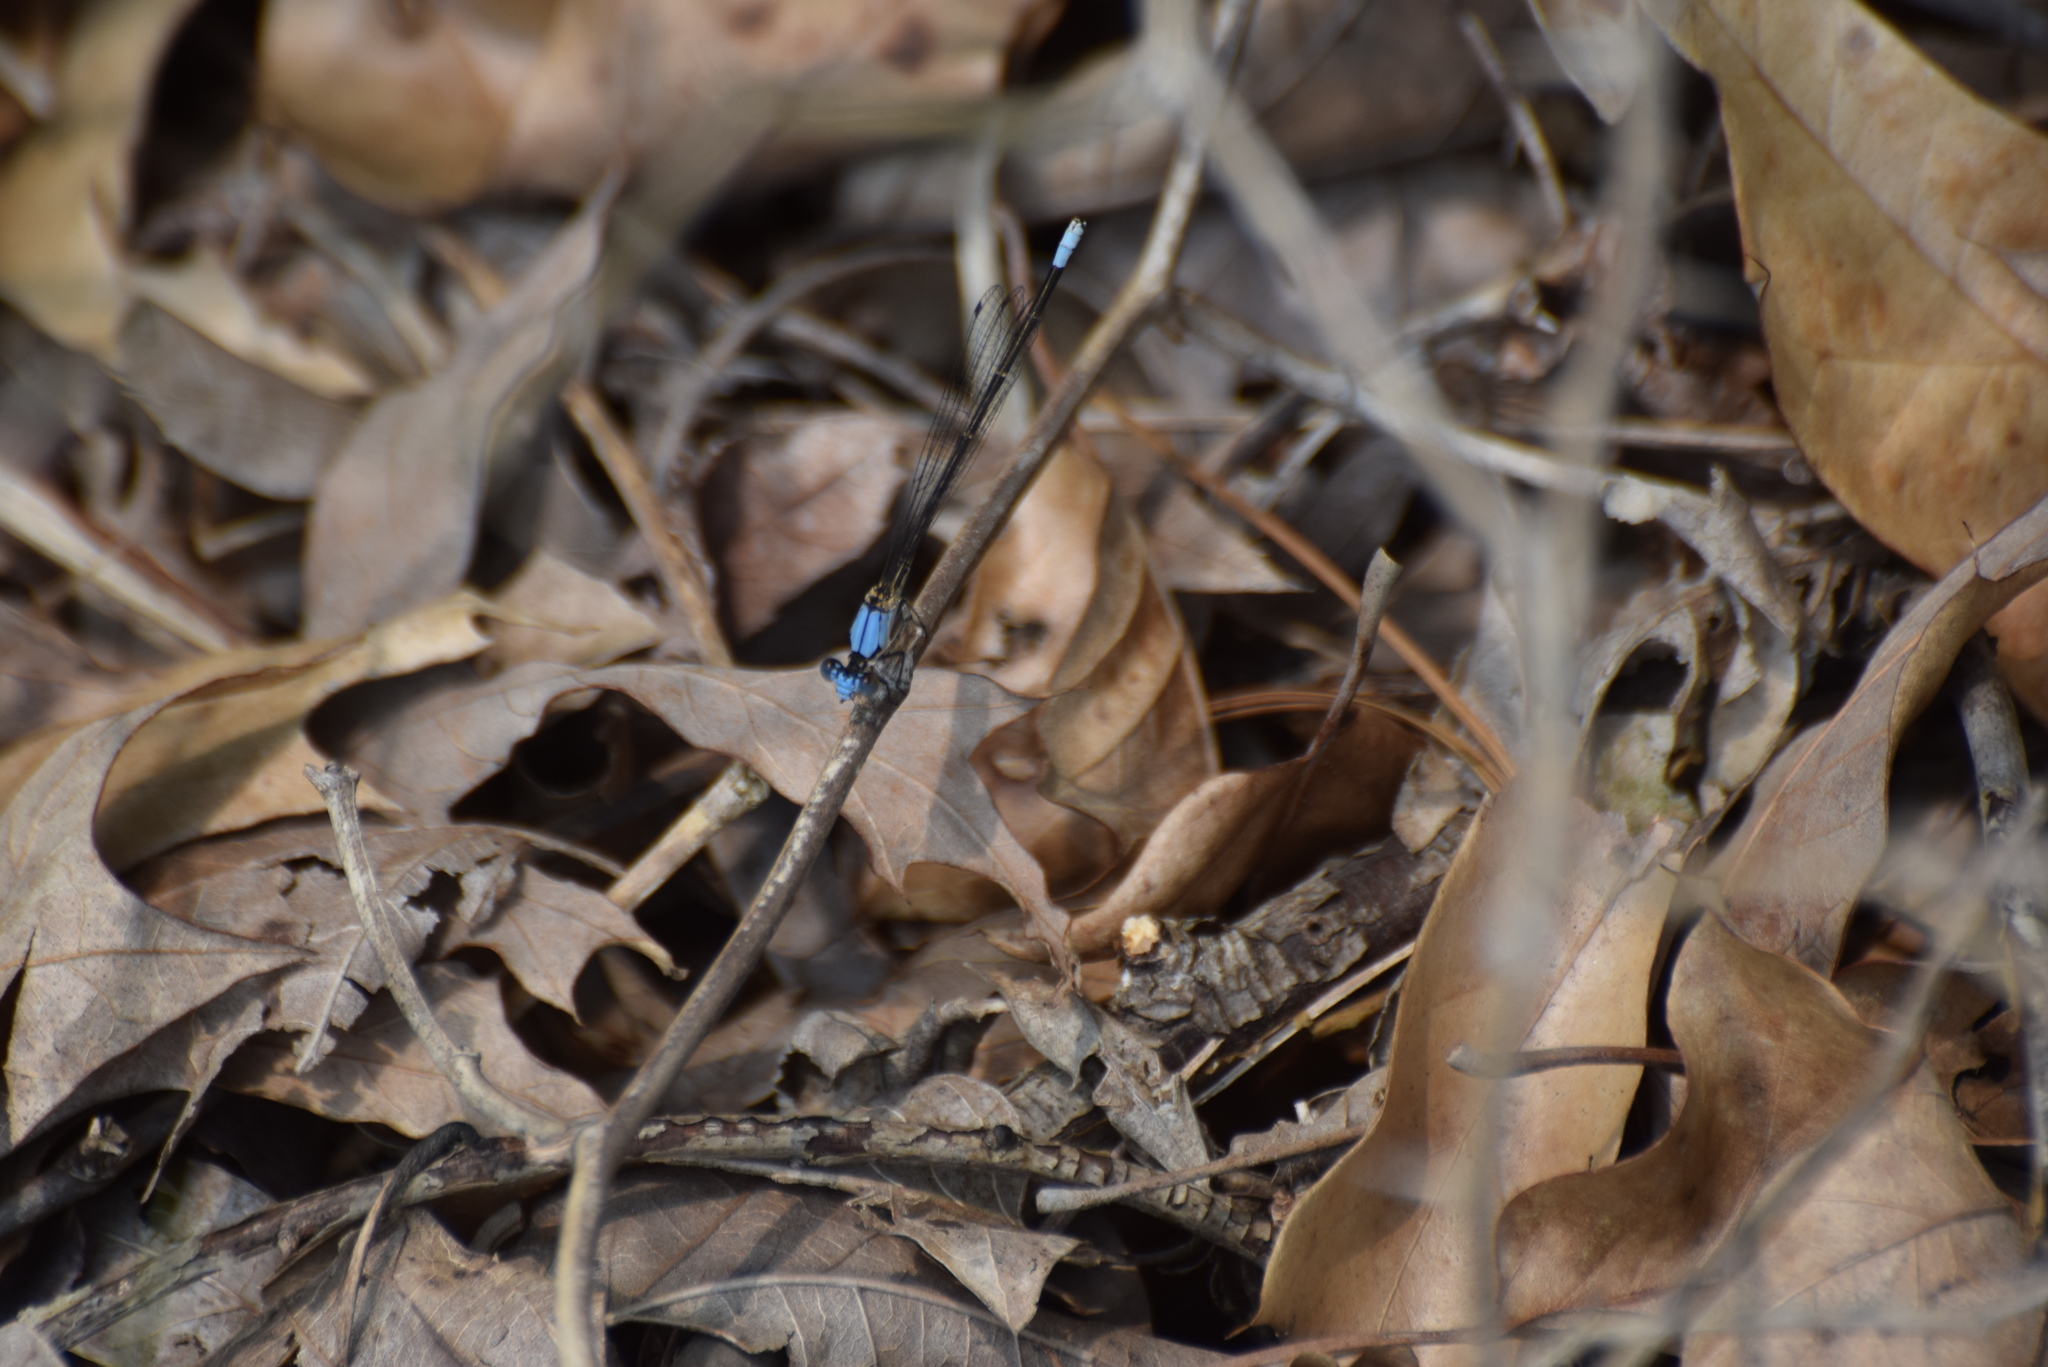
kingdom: Animalia
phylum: Arthropoda
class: Insecta
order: Odonata
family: Coenagrionidae
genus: Argia
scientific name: Argia apicalis
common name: Blue-fronted dancer
